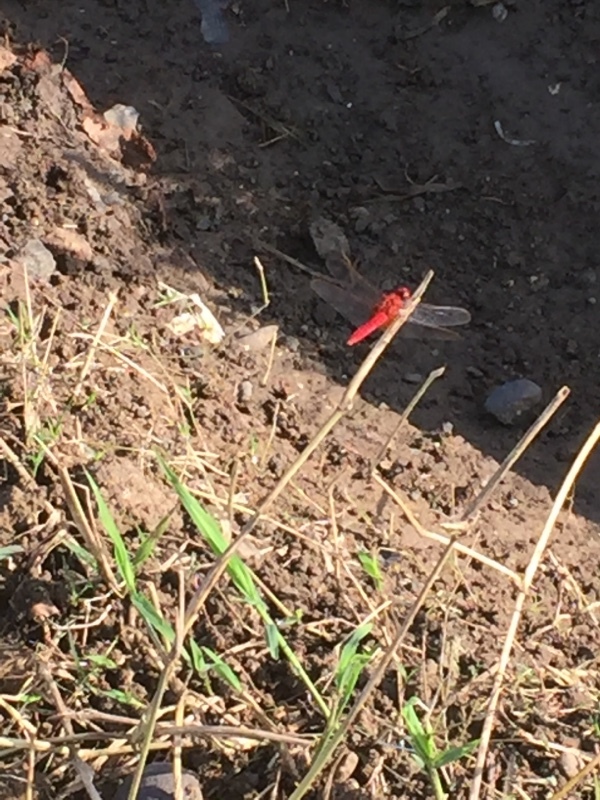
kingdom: Animalia
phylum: Arthropoda
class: Insecta
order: Odonata
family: Libellulidae
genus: Crocothemis
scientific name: Crocothemis servilia
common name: Scarlet skimmer
